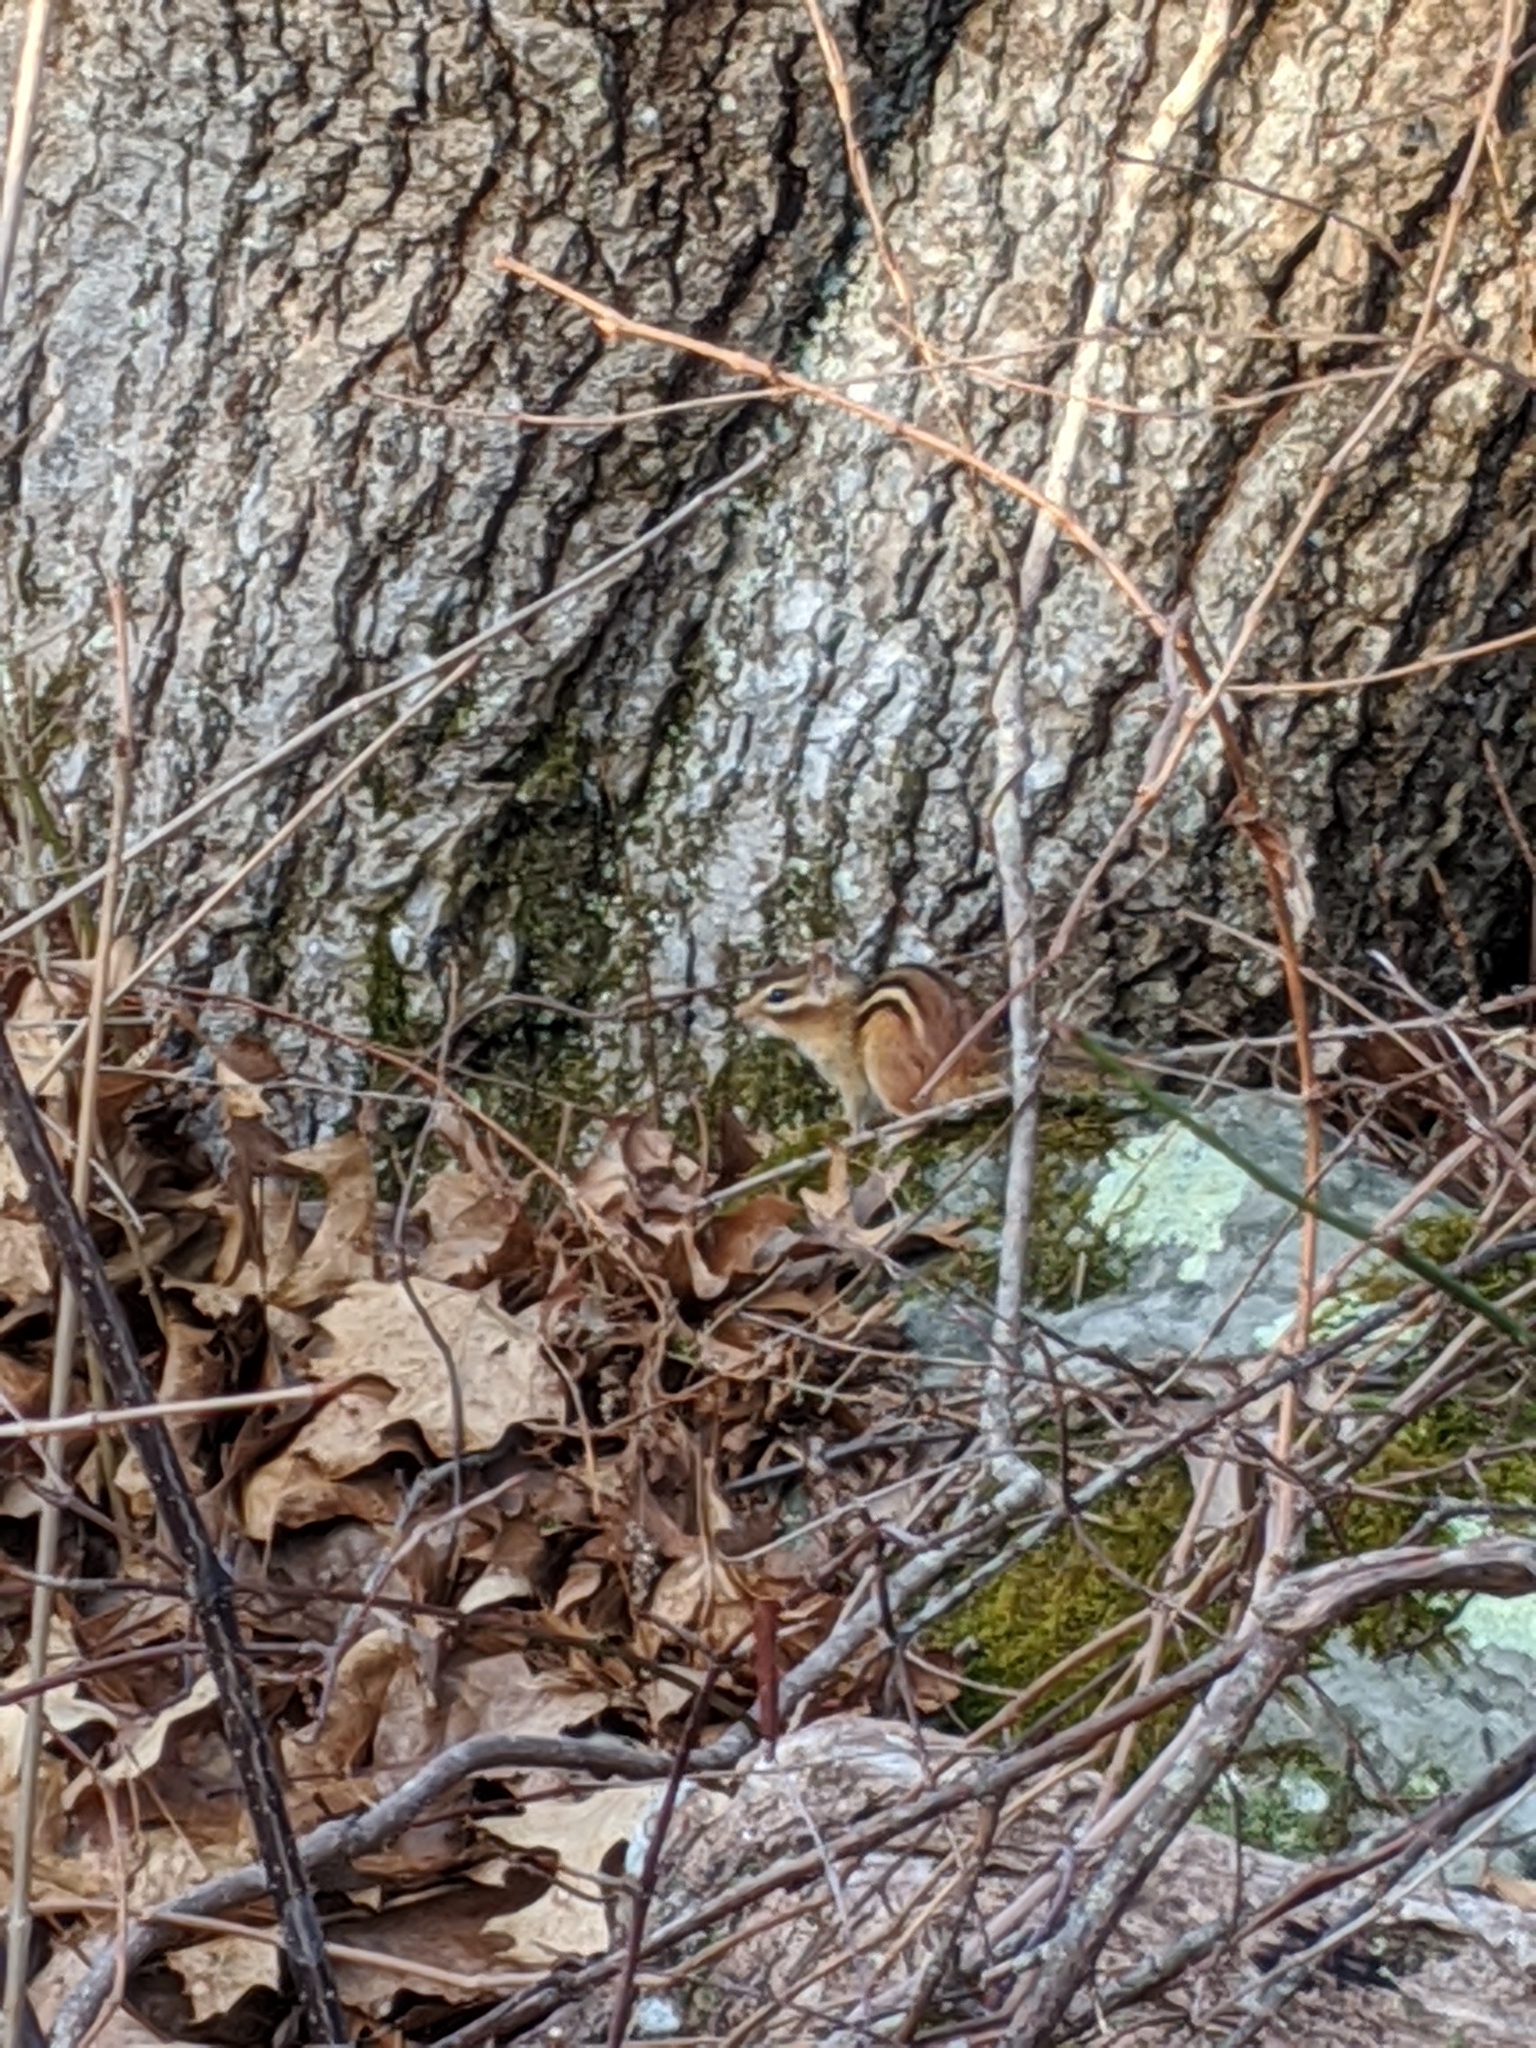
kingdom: Animalia
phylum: Chordata
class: Mammalia
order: Rodentia
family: Sciuridae
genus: Tamias
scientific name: Tamias striatus
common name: Eastern chipmunk
